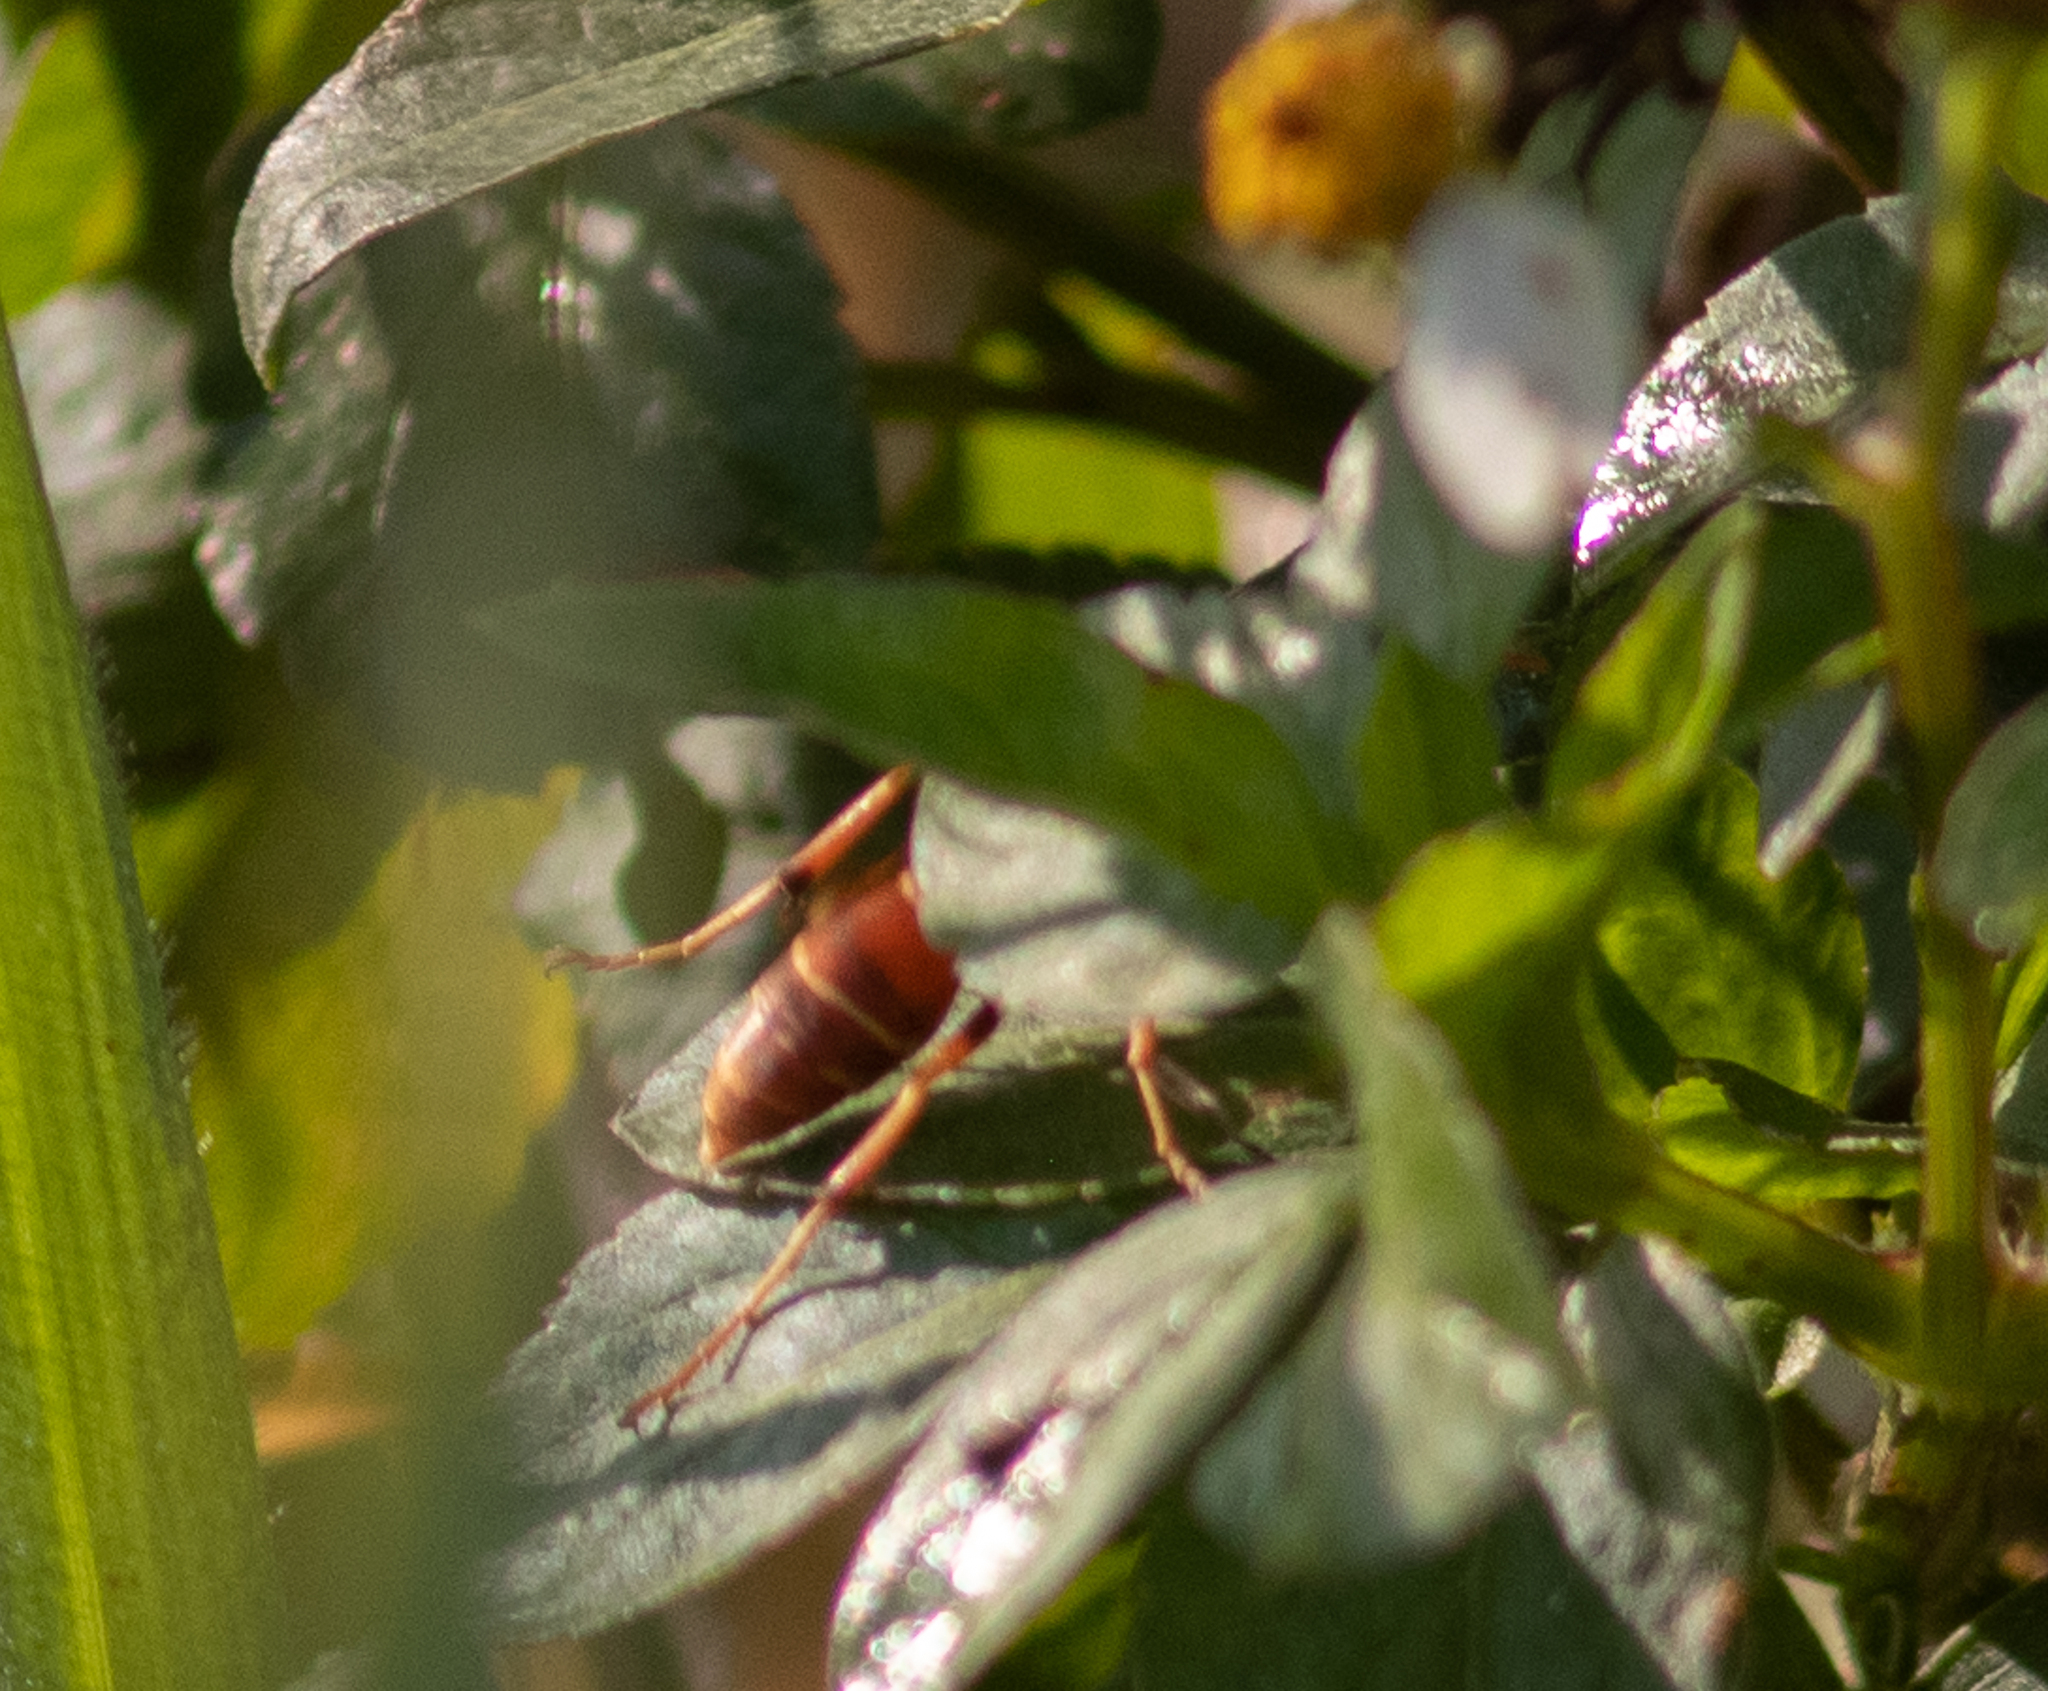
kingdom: Animalia
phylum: Arthropoda
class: Insecta
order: Hymenoptera
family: Eumenidae
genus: Polistes
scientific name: Polistes bellicosus
